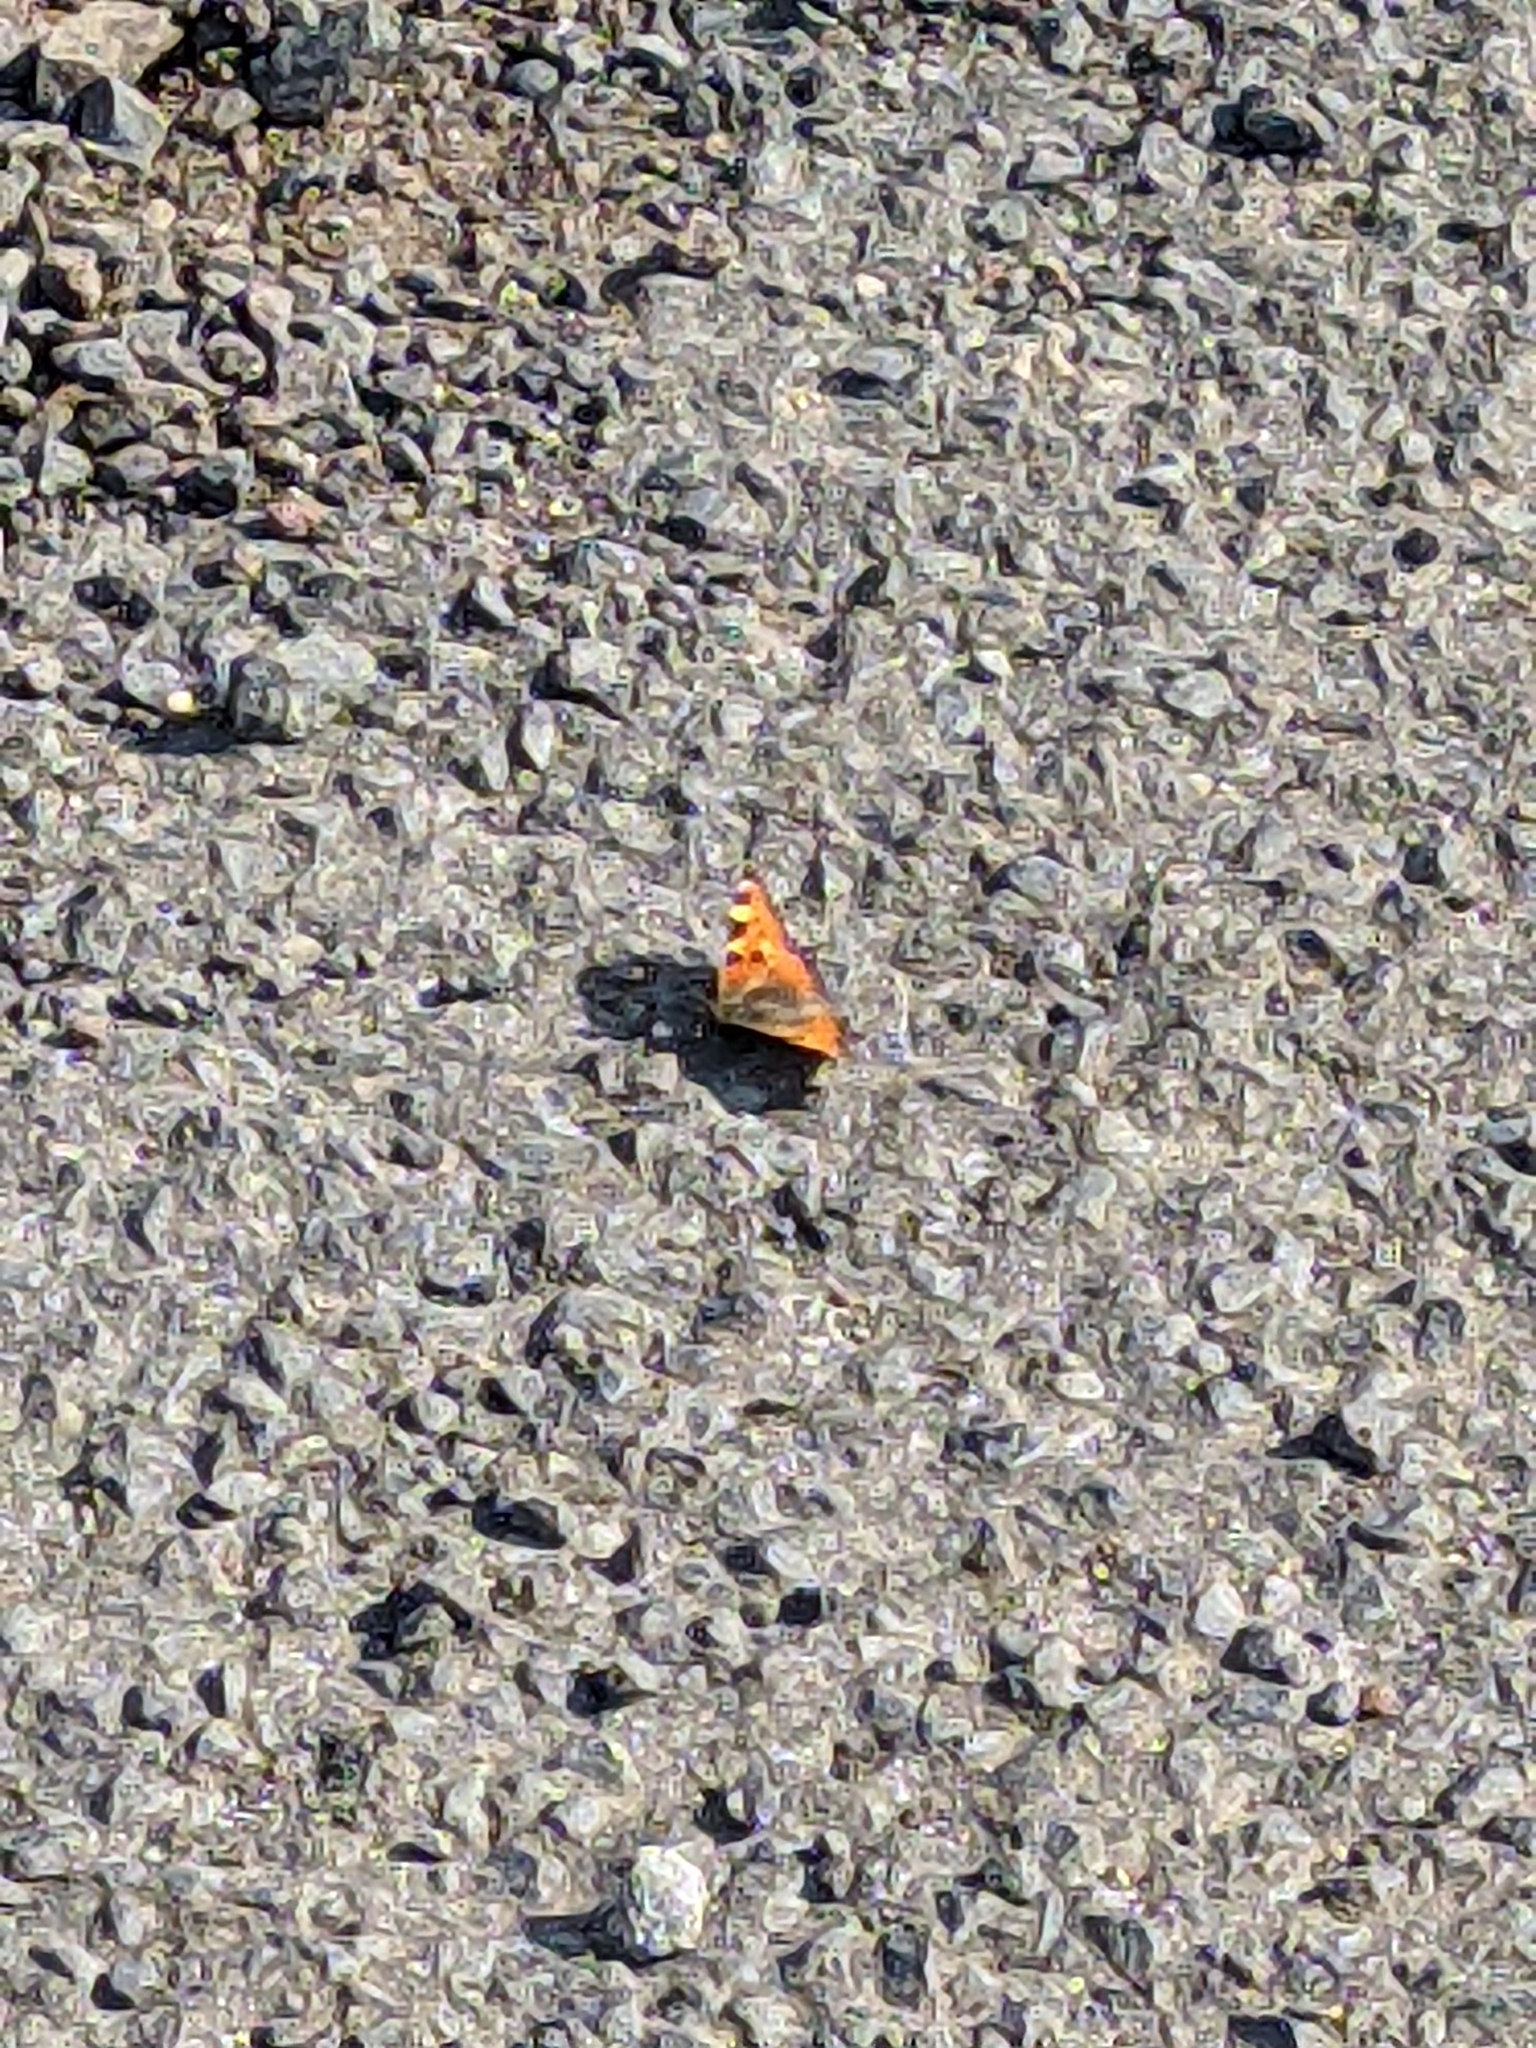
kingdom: Animalia
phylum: Arthropoda
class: Insecta
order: Lepidoptera
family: Nymphalidae
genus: Aglais
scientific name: Aglais urticae
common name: Small tortoiseshell
